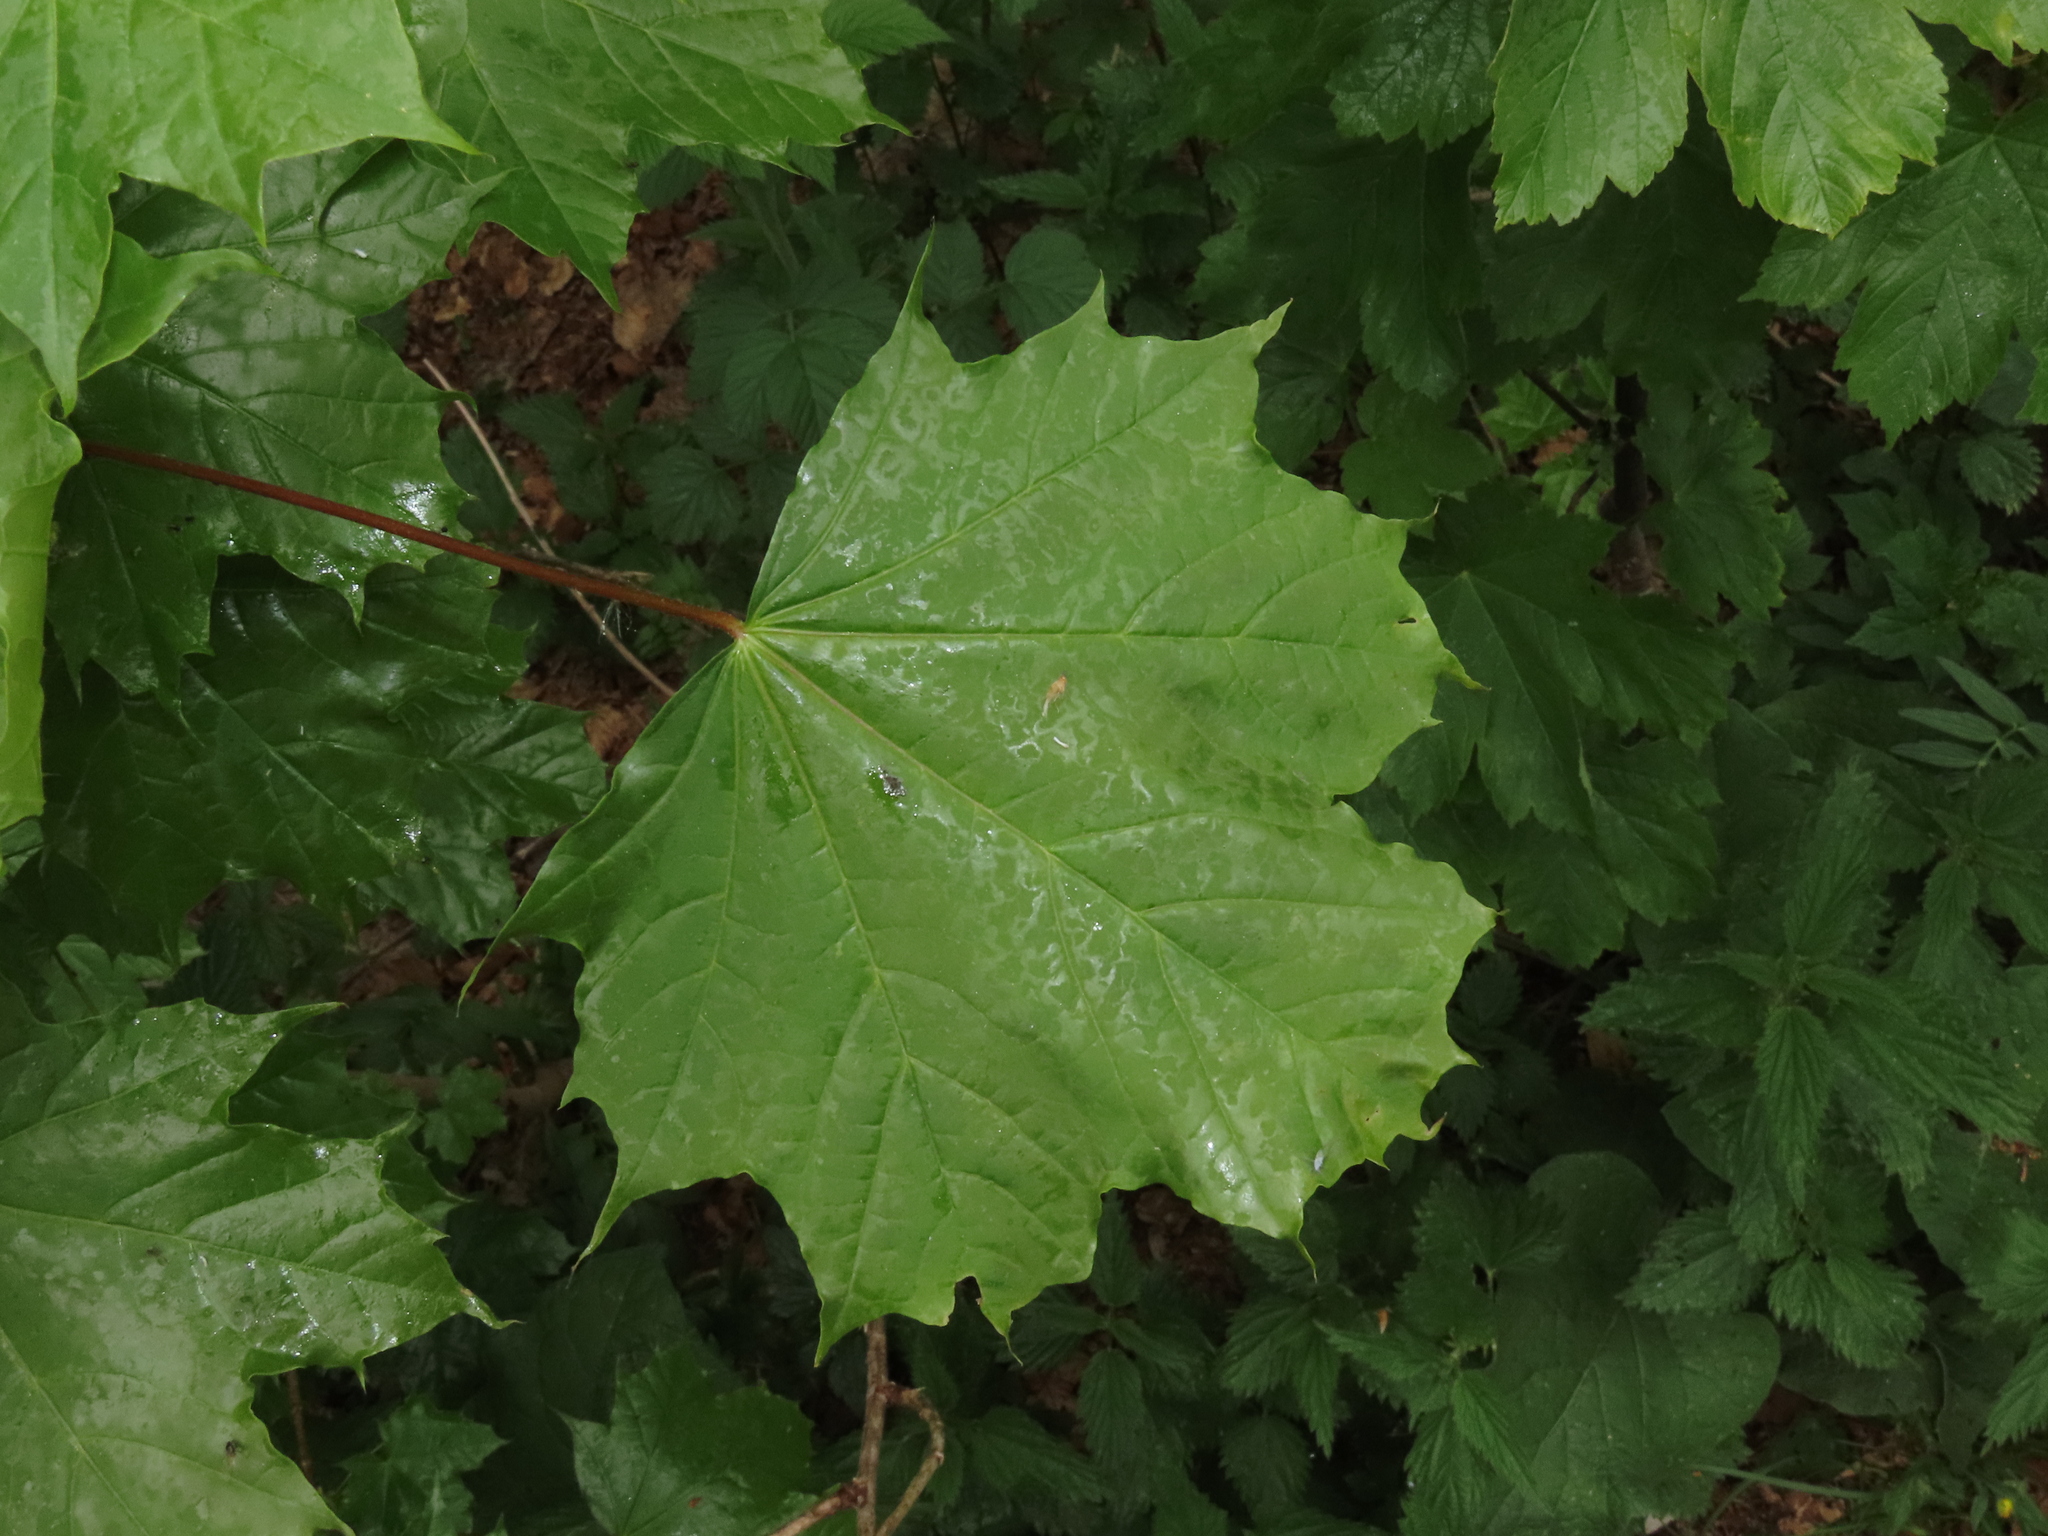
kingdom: Plantae
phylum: Tracheophyta
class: Magnoliopsida
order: Sapindales
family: Sapindaceae
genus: Acer
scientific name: Acer platanoides
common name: Norway maple
